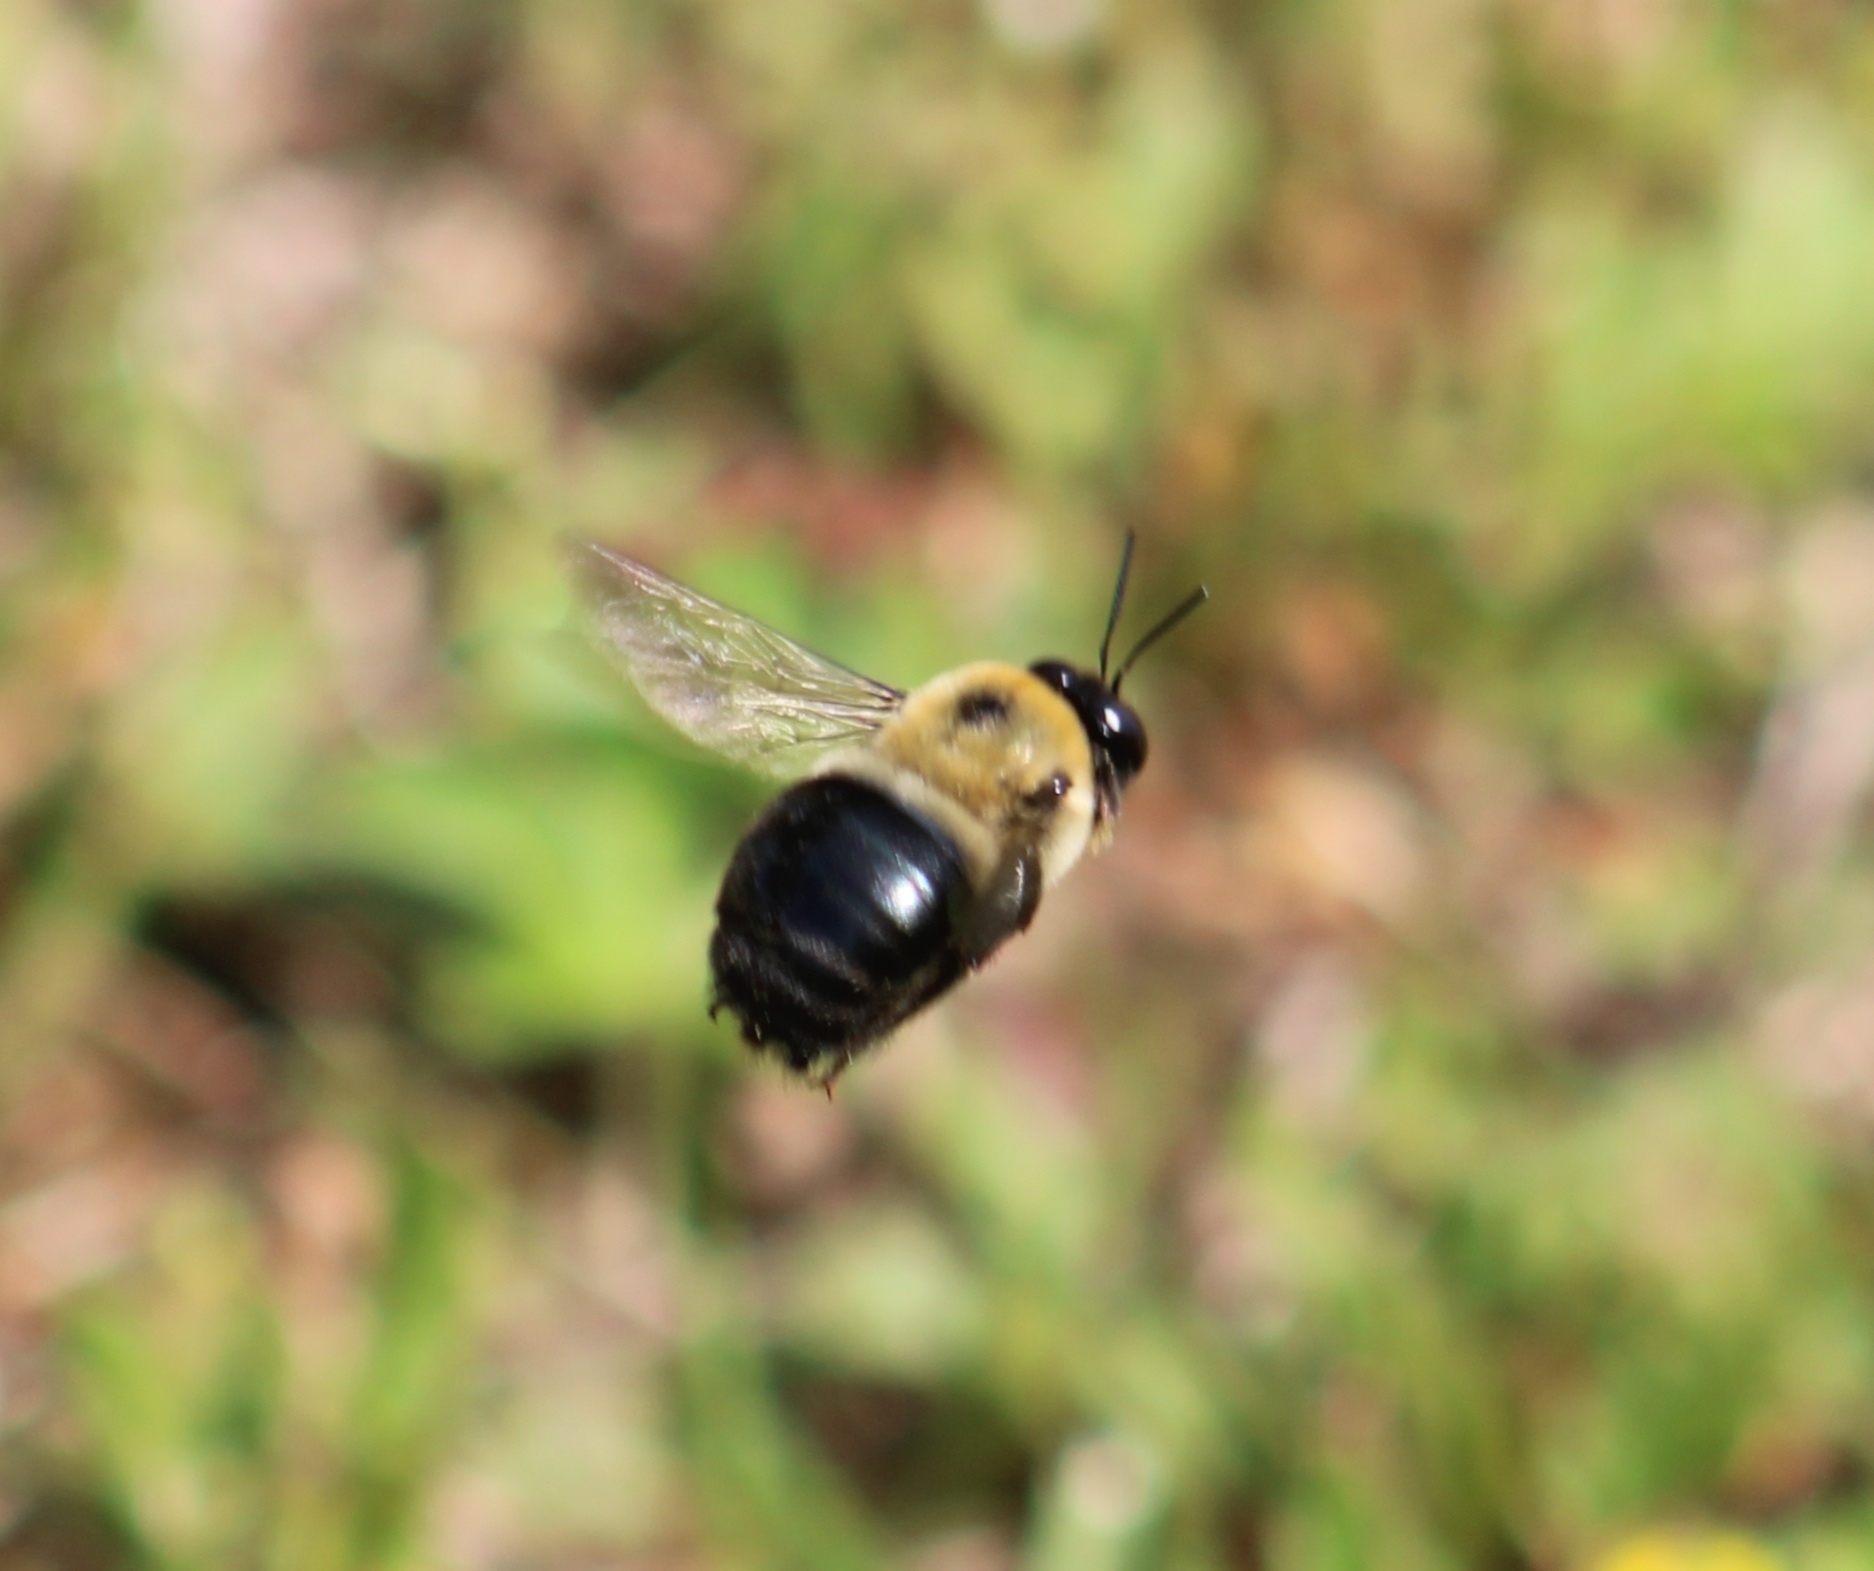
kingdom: Animalia
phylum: Arthropoda
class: Insecta
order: Hymenoptera
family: Apidae
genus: Xylocopa
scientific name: Xylocopa virginica
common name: Carpenter bee
